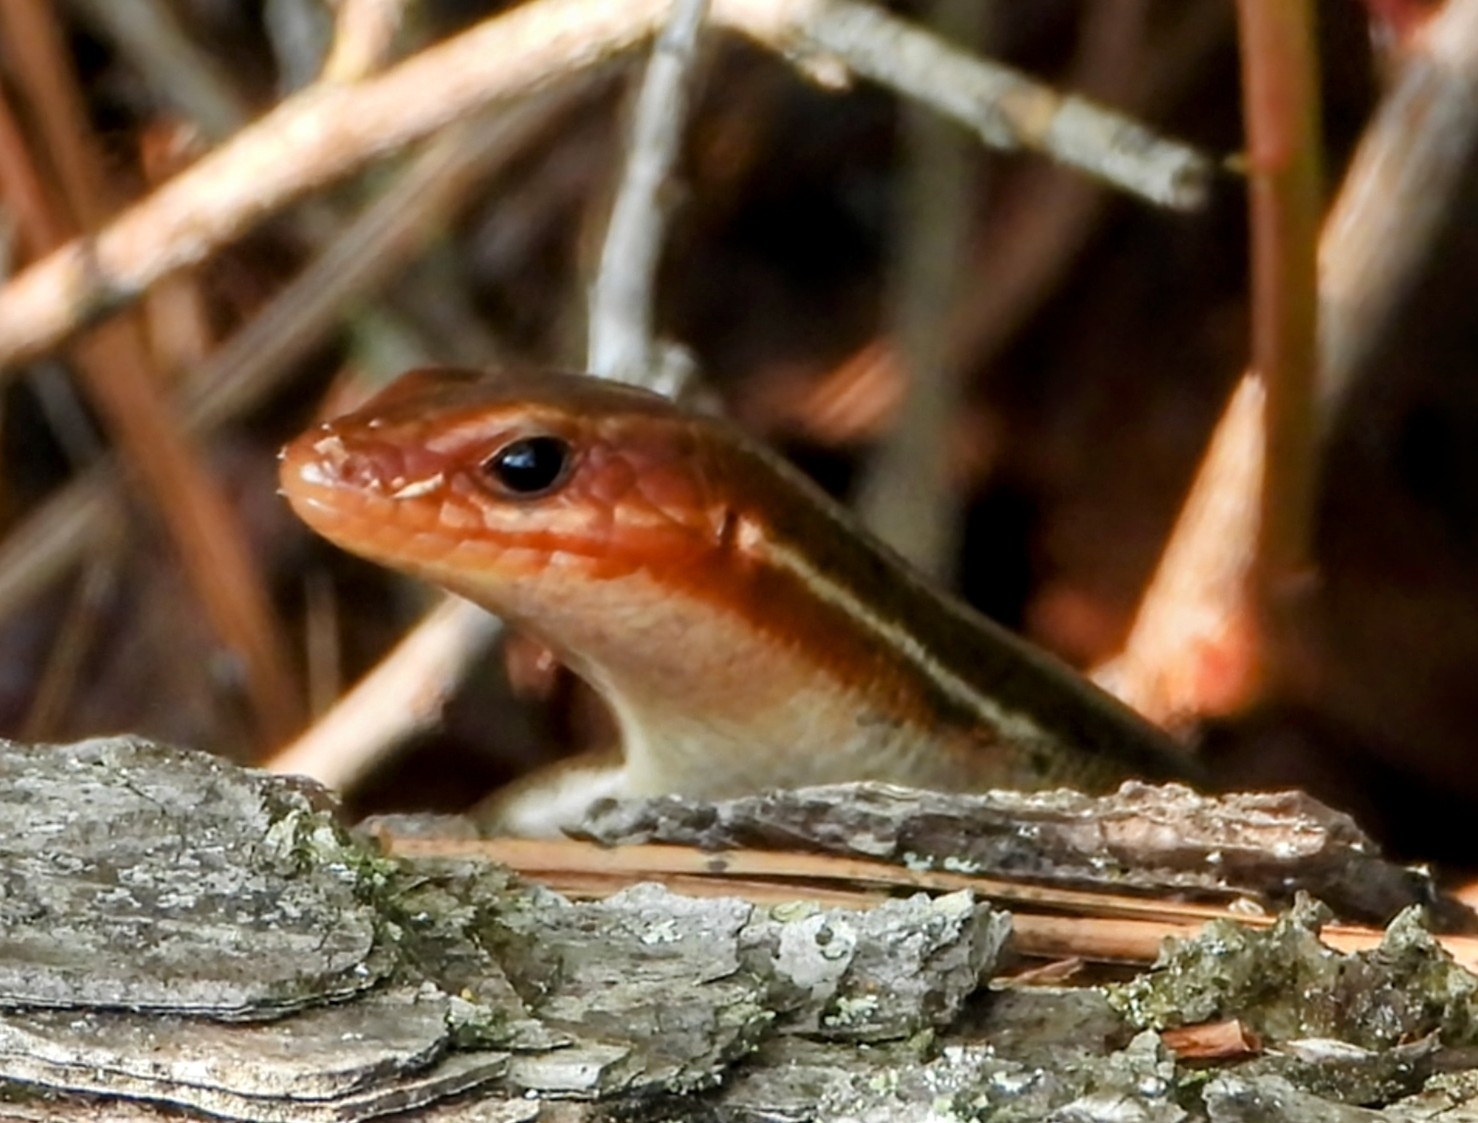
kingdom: Animalia
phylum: Chordata
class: Squamata
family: Scincidae
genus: Plestiodon
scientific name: Plestiodon inexpectatus
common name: Southeastern five-lined skink
